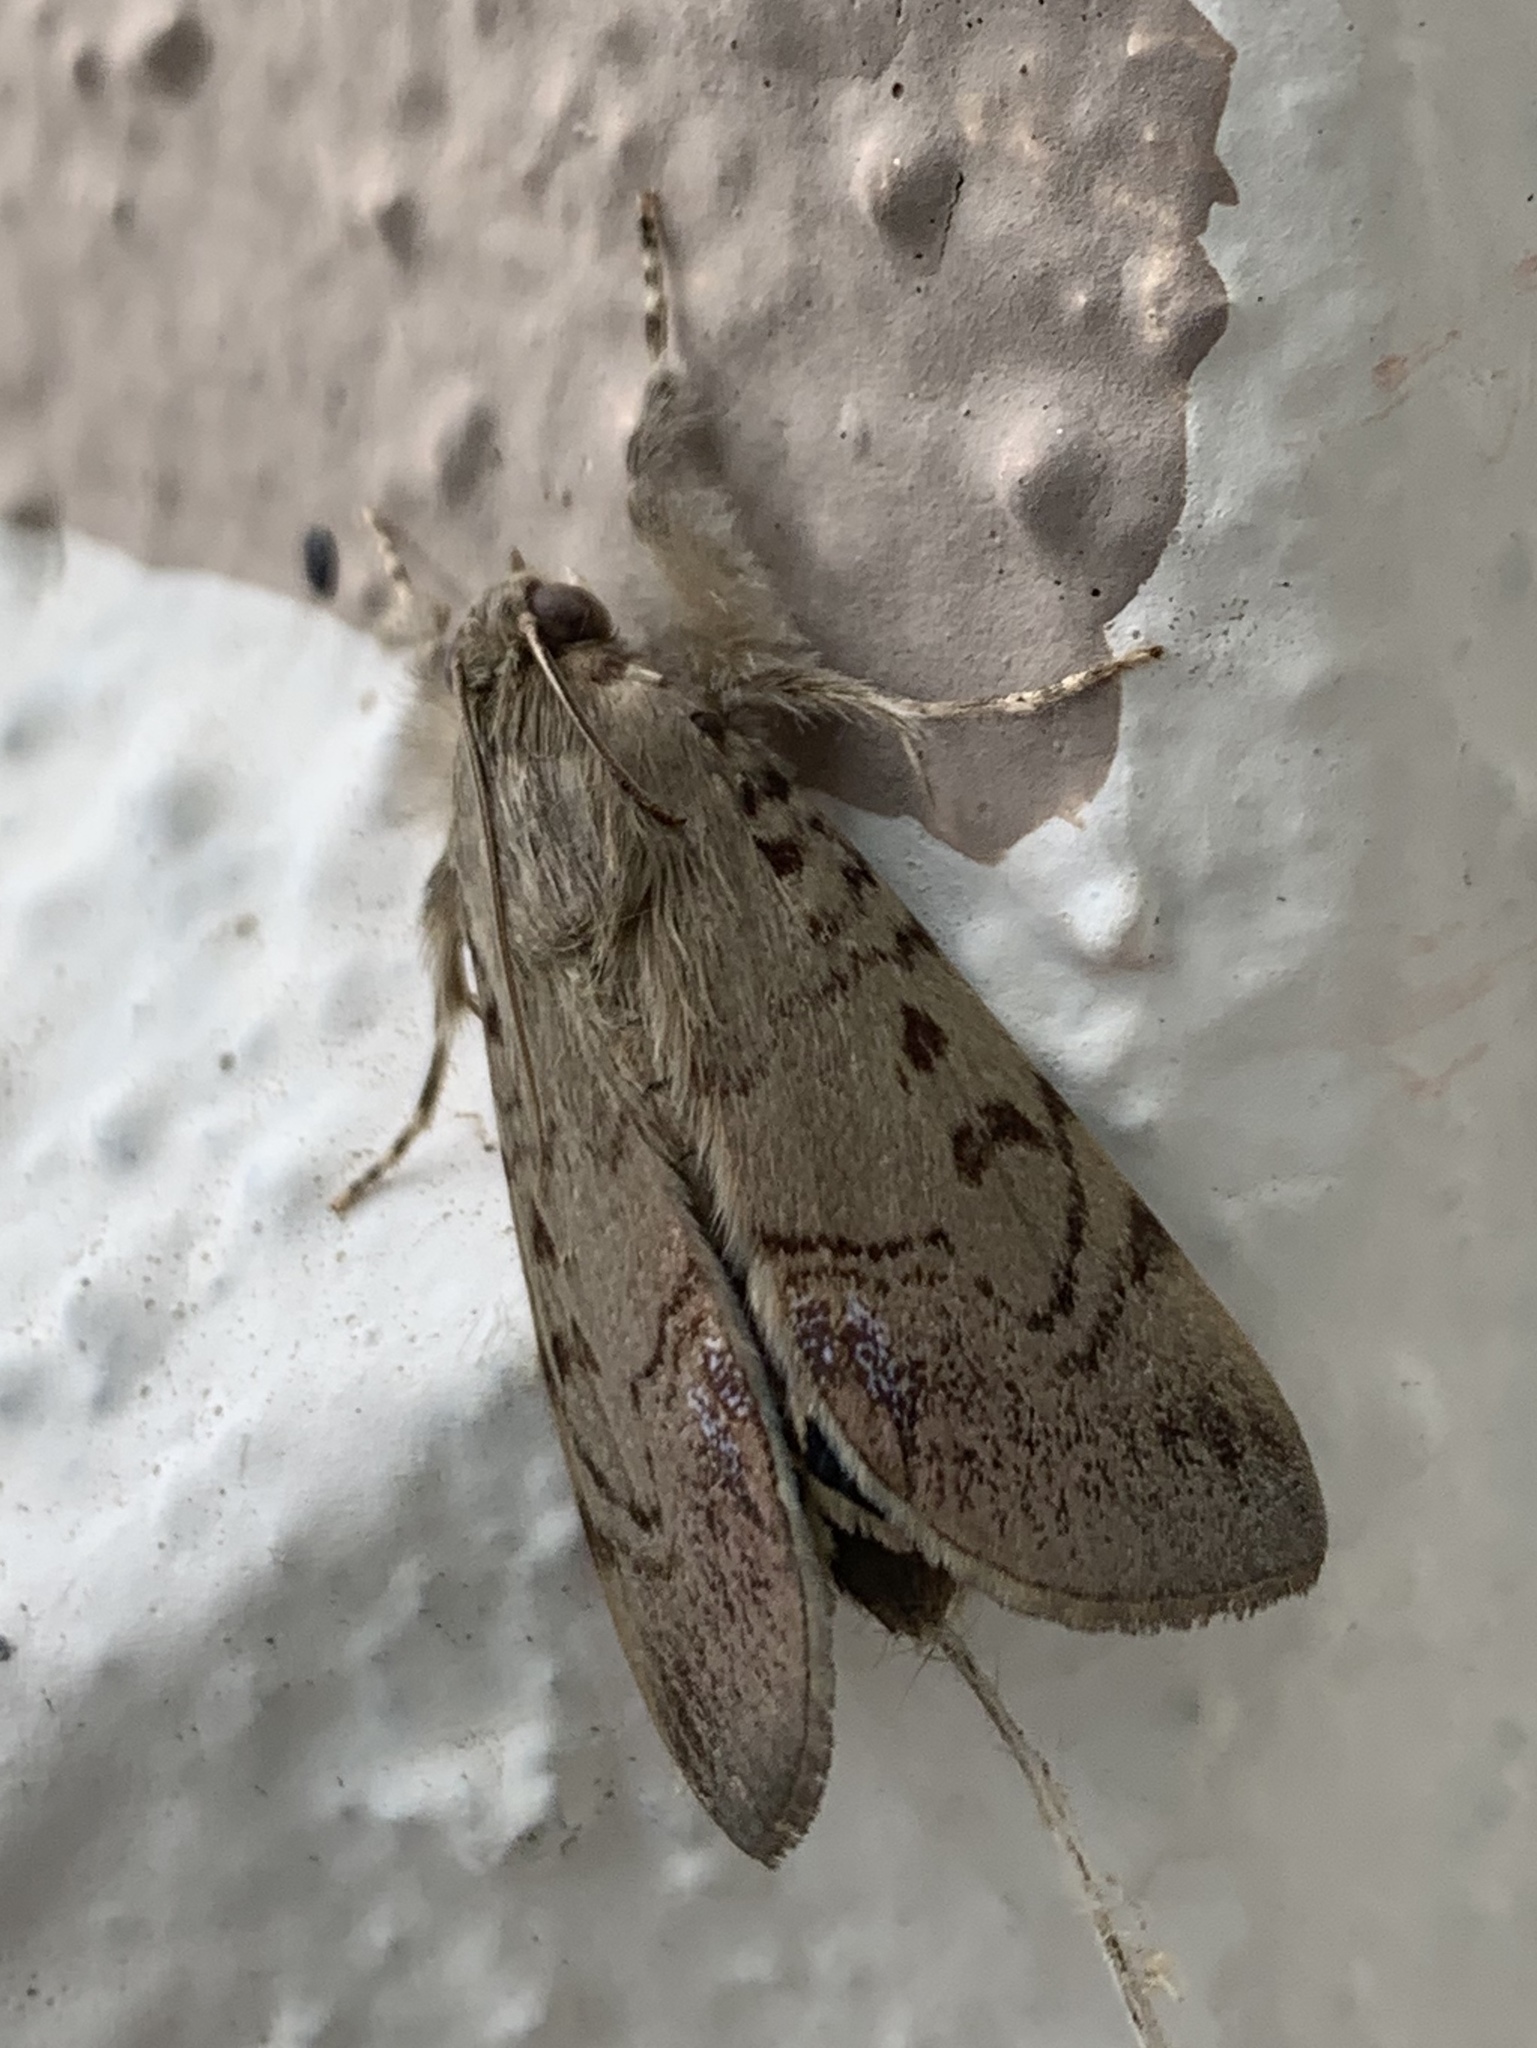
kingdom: Animalia
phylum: Arthropoda
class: Insecta
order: Lepidoptera
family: Erebidae
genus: Litoprosopus
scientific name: Litoprosopus futilis
